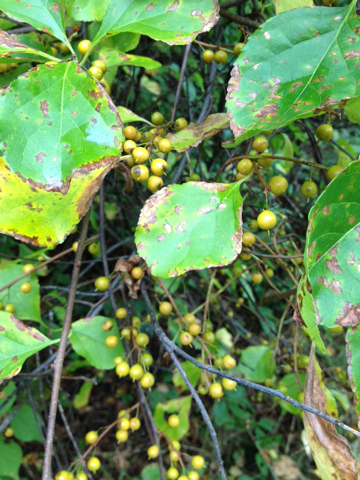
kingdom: Plantae
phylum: Tracheophyta
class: Magnoliopsida
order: Celastrales
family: Celastraceae
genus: Celastrus
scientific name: Celastrus orbiculatus
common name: Oriental bittersweet
